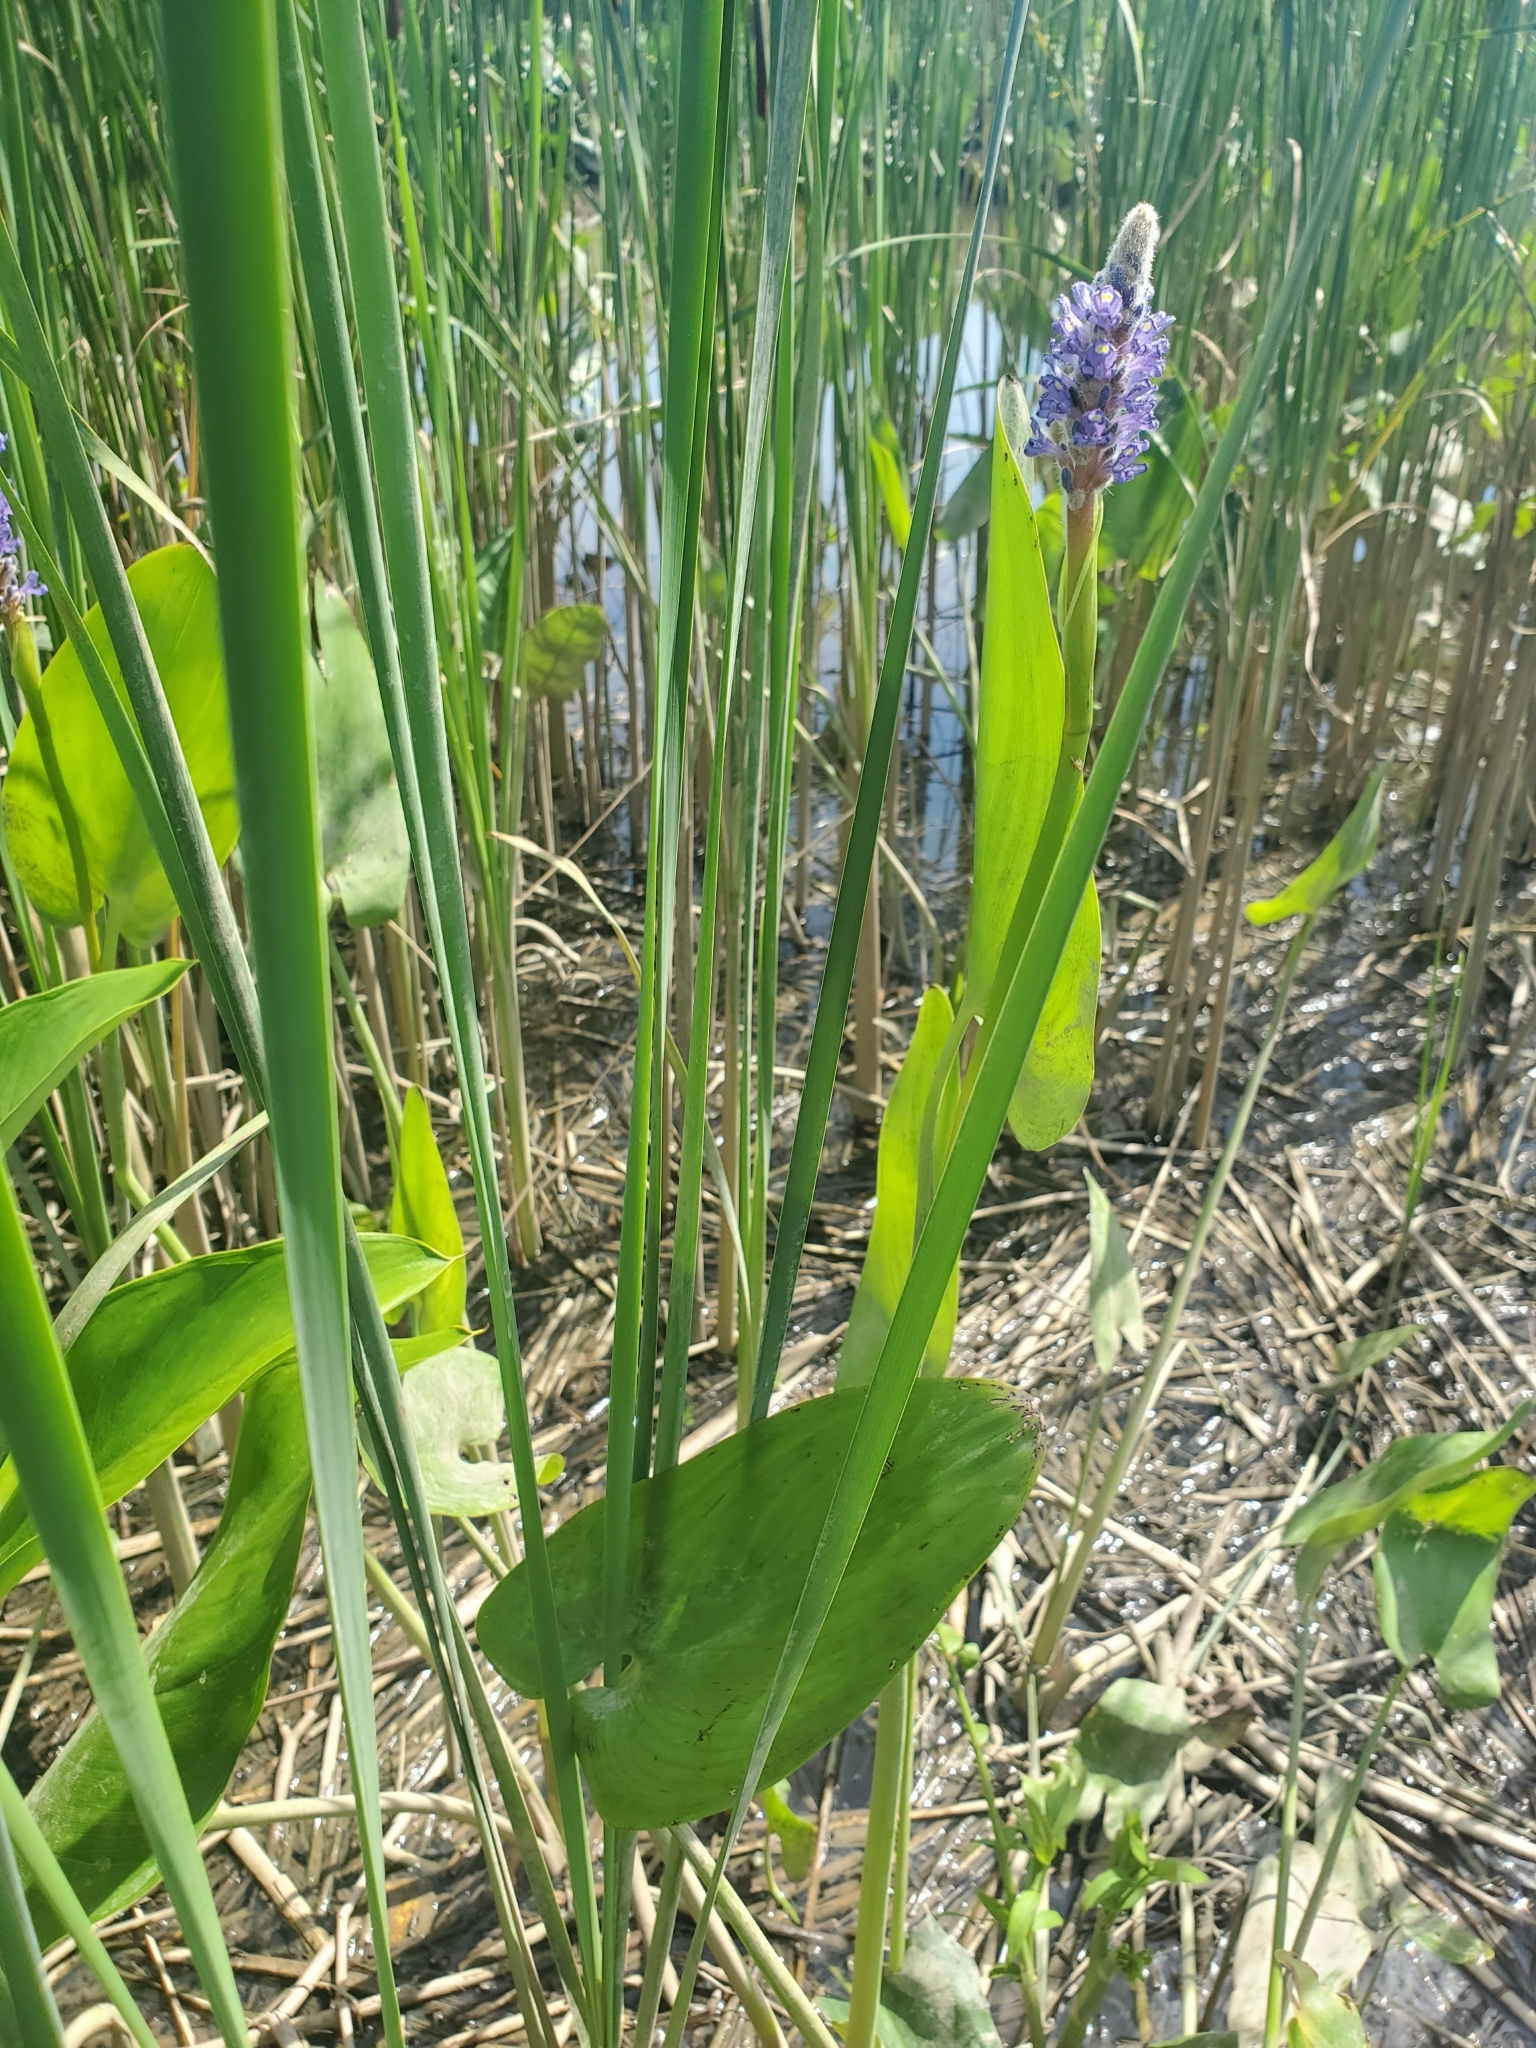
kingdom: Plantae
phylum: Tracheophyta
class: Liliopsida
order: Commelinales
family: Pontederiaceae
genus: Pontederia
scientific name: Pontederia cordata
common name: Pickerelweed
